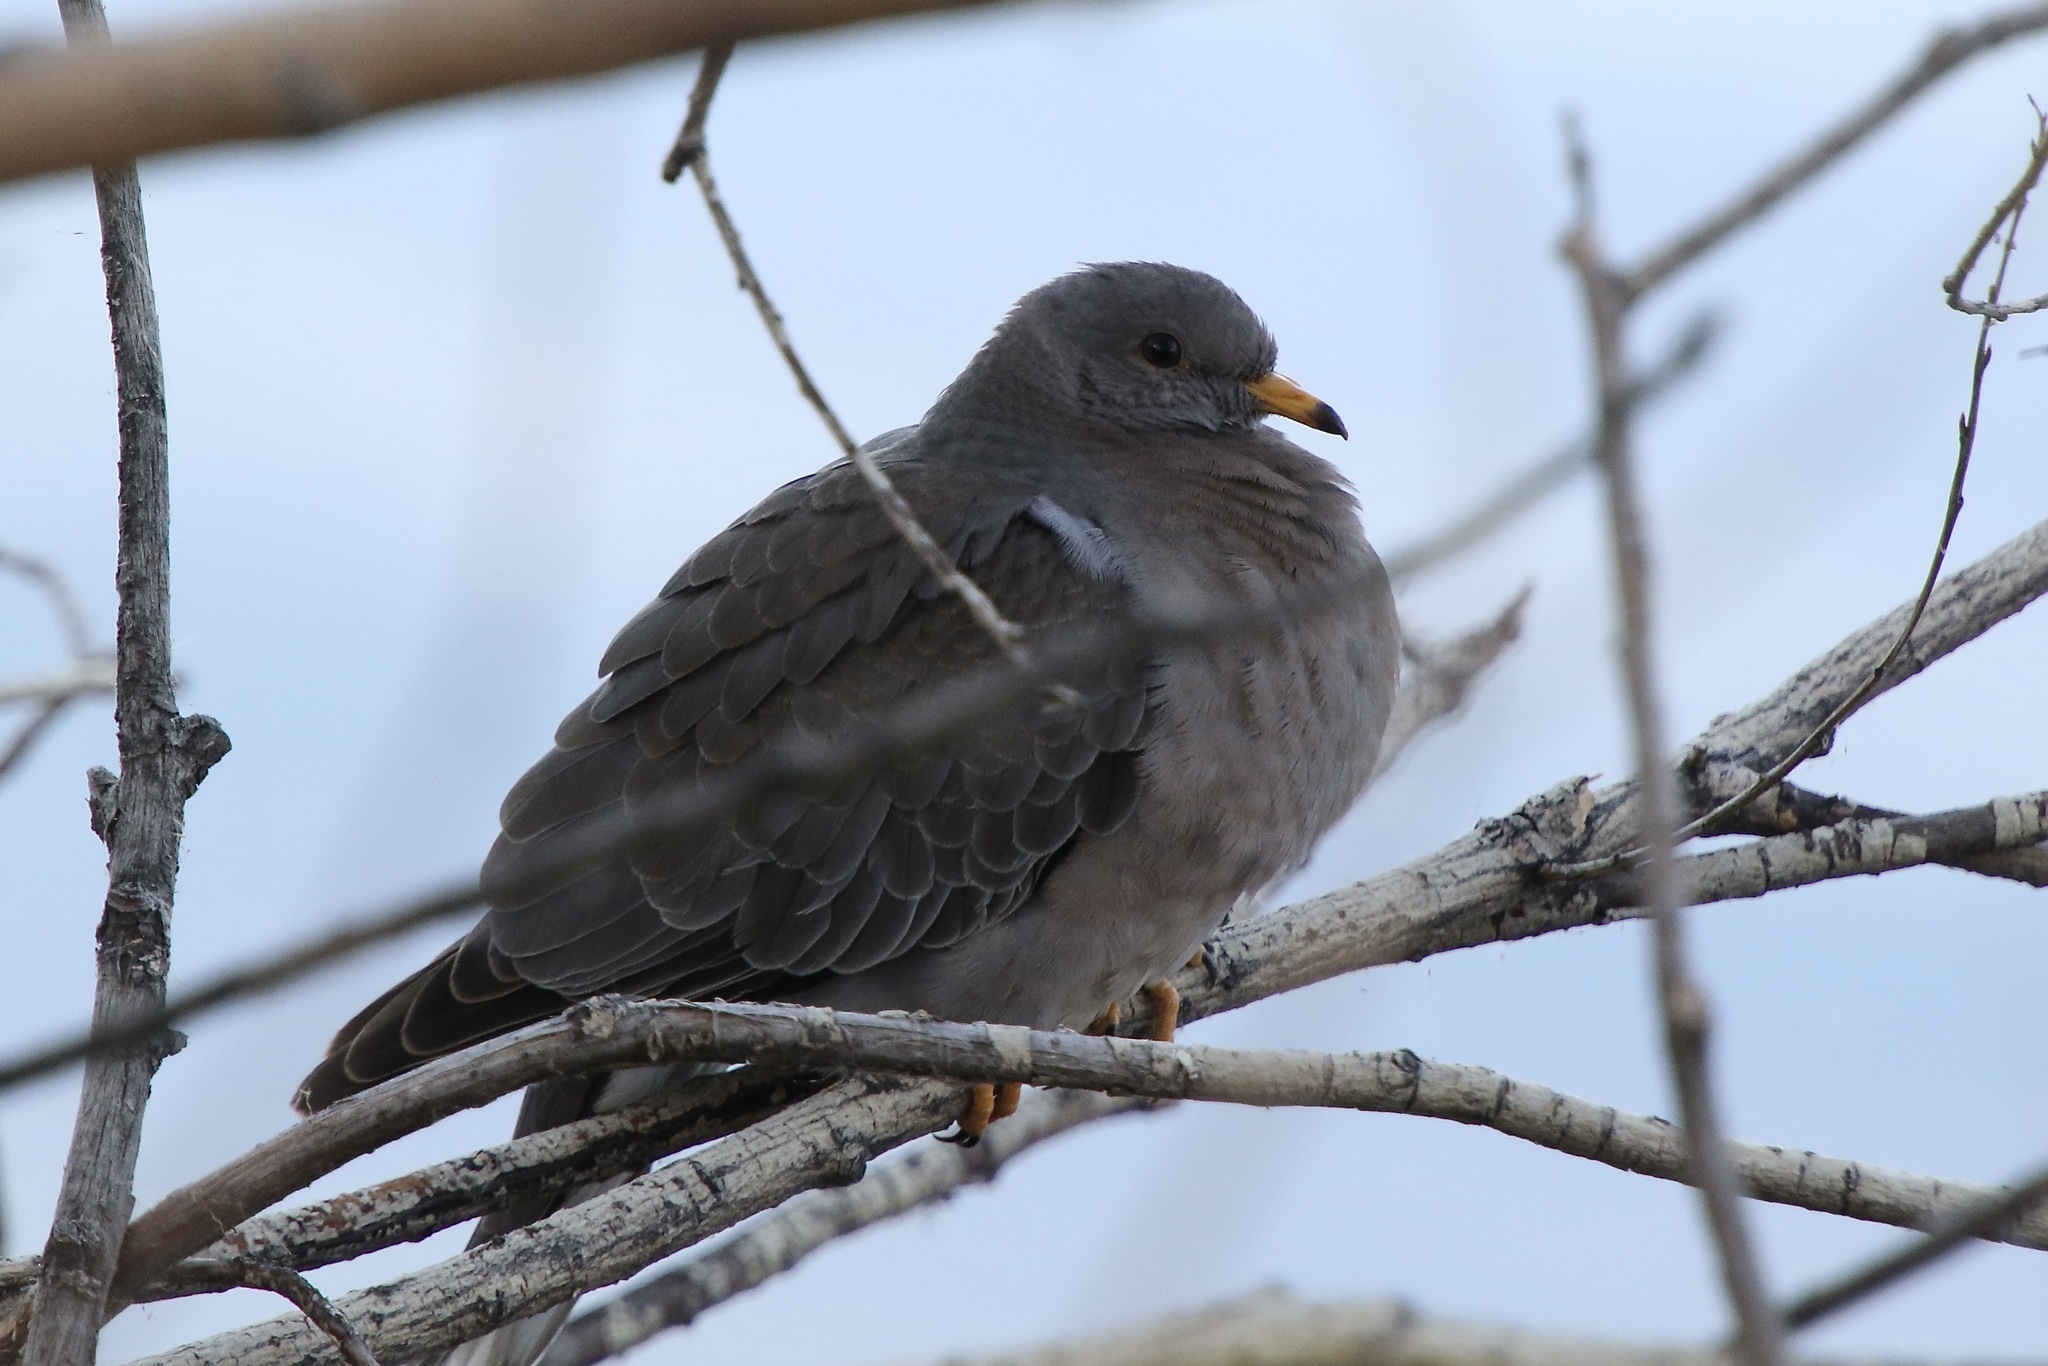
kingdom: Animalia
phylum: Chordata
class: Aves
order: Columbiformes
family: Columbidae
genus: Patagioenas
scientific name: Patagioenas fasciata
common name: Band-tailed pigeon
